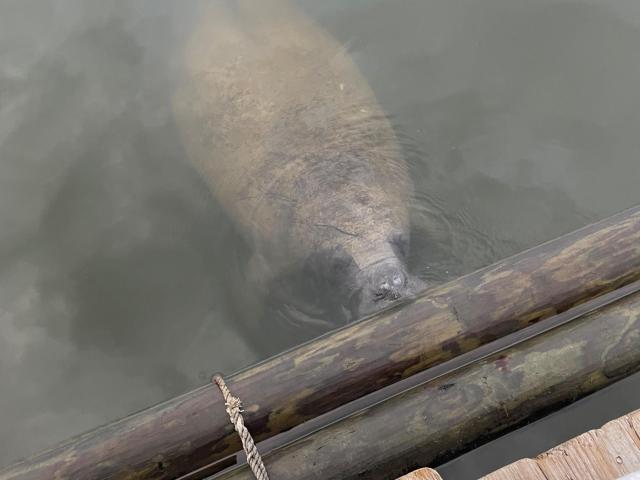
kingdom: Animalia
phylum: Chordata
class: Mammalia
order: Sirenia
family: Trichechidae
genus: Trichechus
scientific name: Trichechus manatus
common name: West indian manatee
